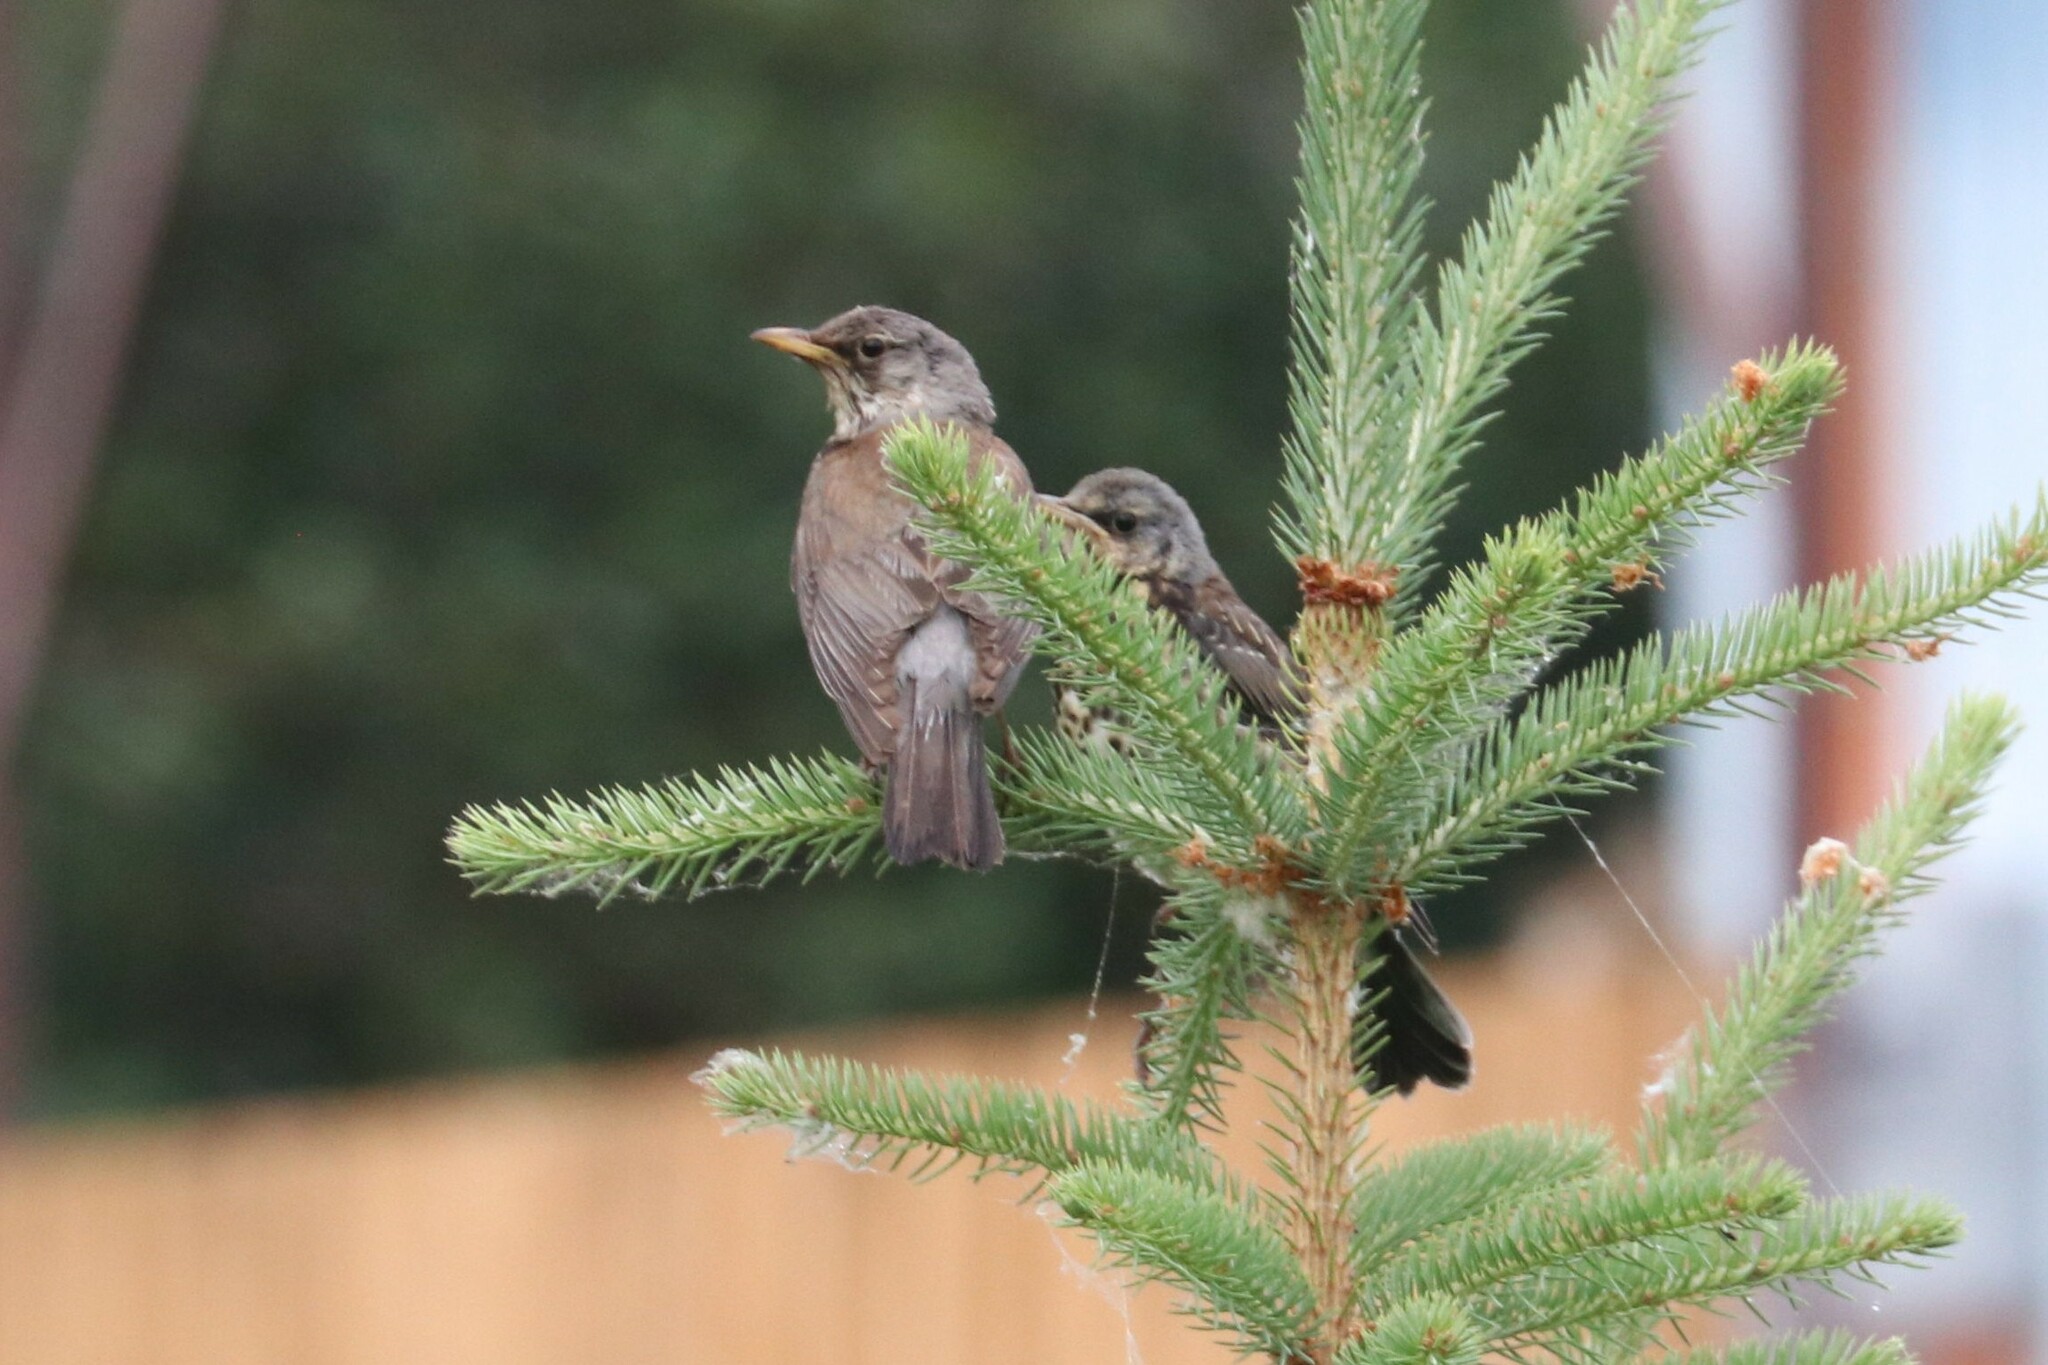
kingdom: Animalia
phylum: Chordata
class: Aves
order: Passeriformes
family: Turdidae
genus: Turdus
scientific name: Turdus pilaris
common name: Fieldfare
